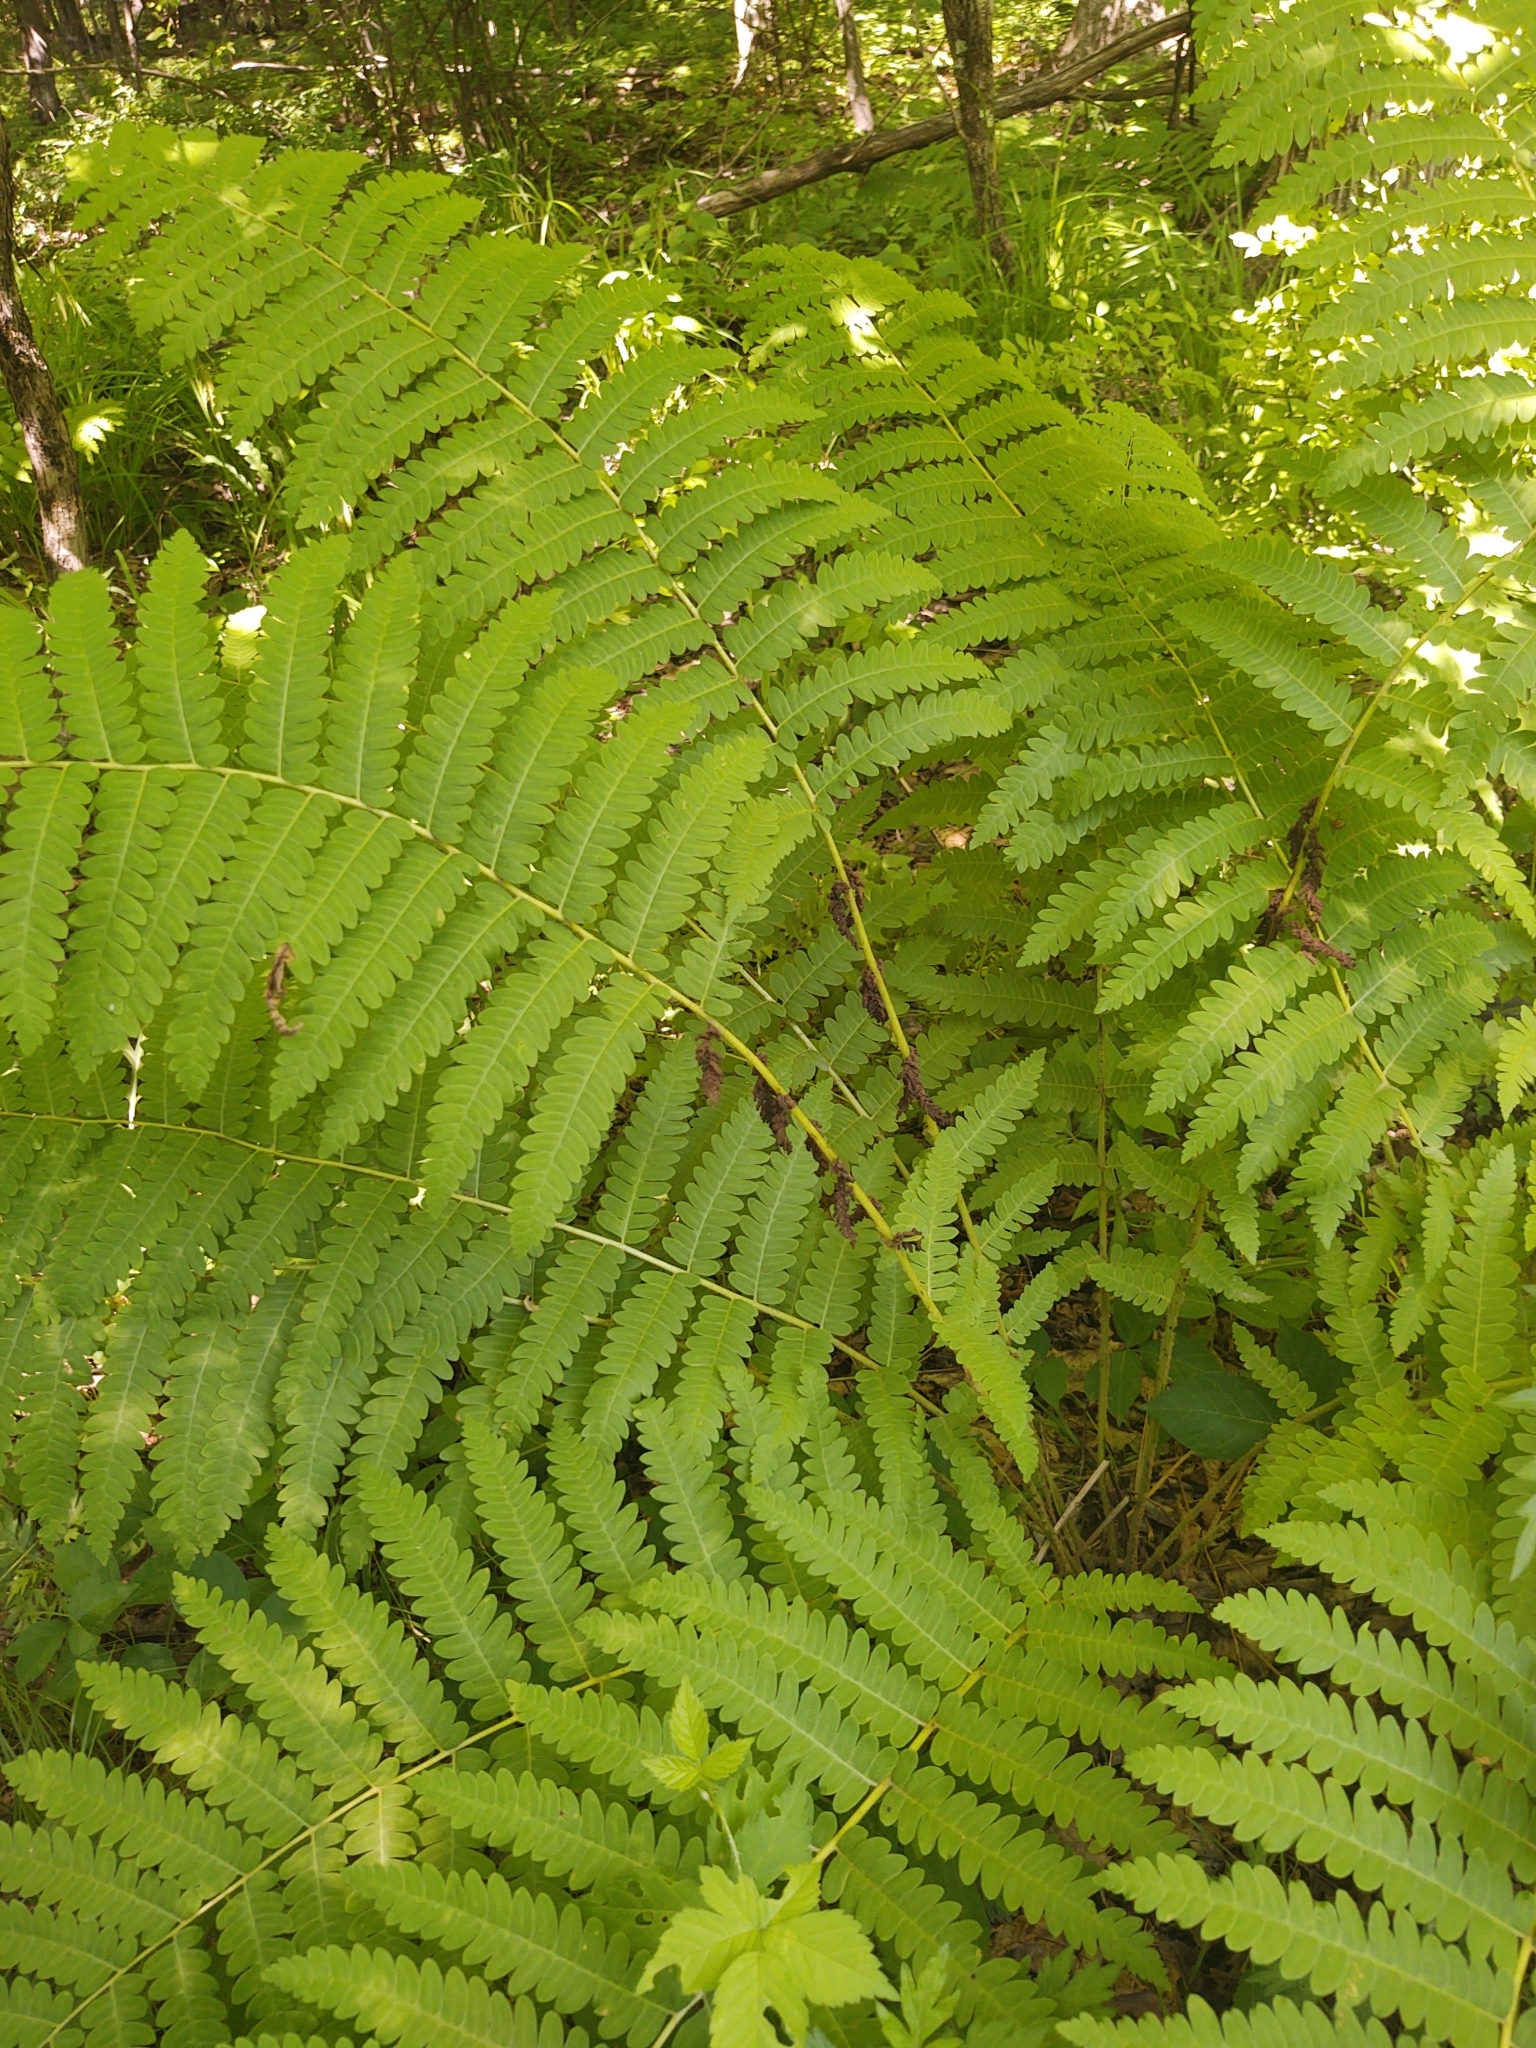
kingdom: Plantae
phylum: Tracheophyta
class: Polypodiopsida
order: Osmundales
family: Osmundaceae
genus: Claytosmunda
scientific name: Claytosmunda claytoniana
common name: Clayton's fern
